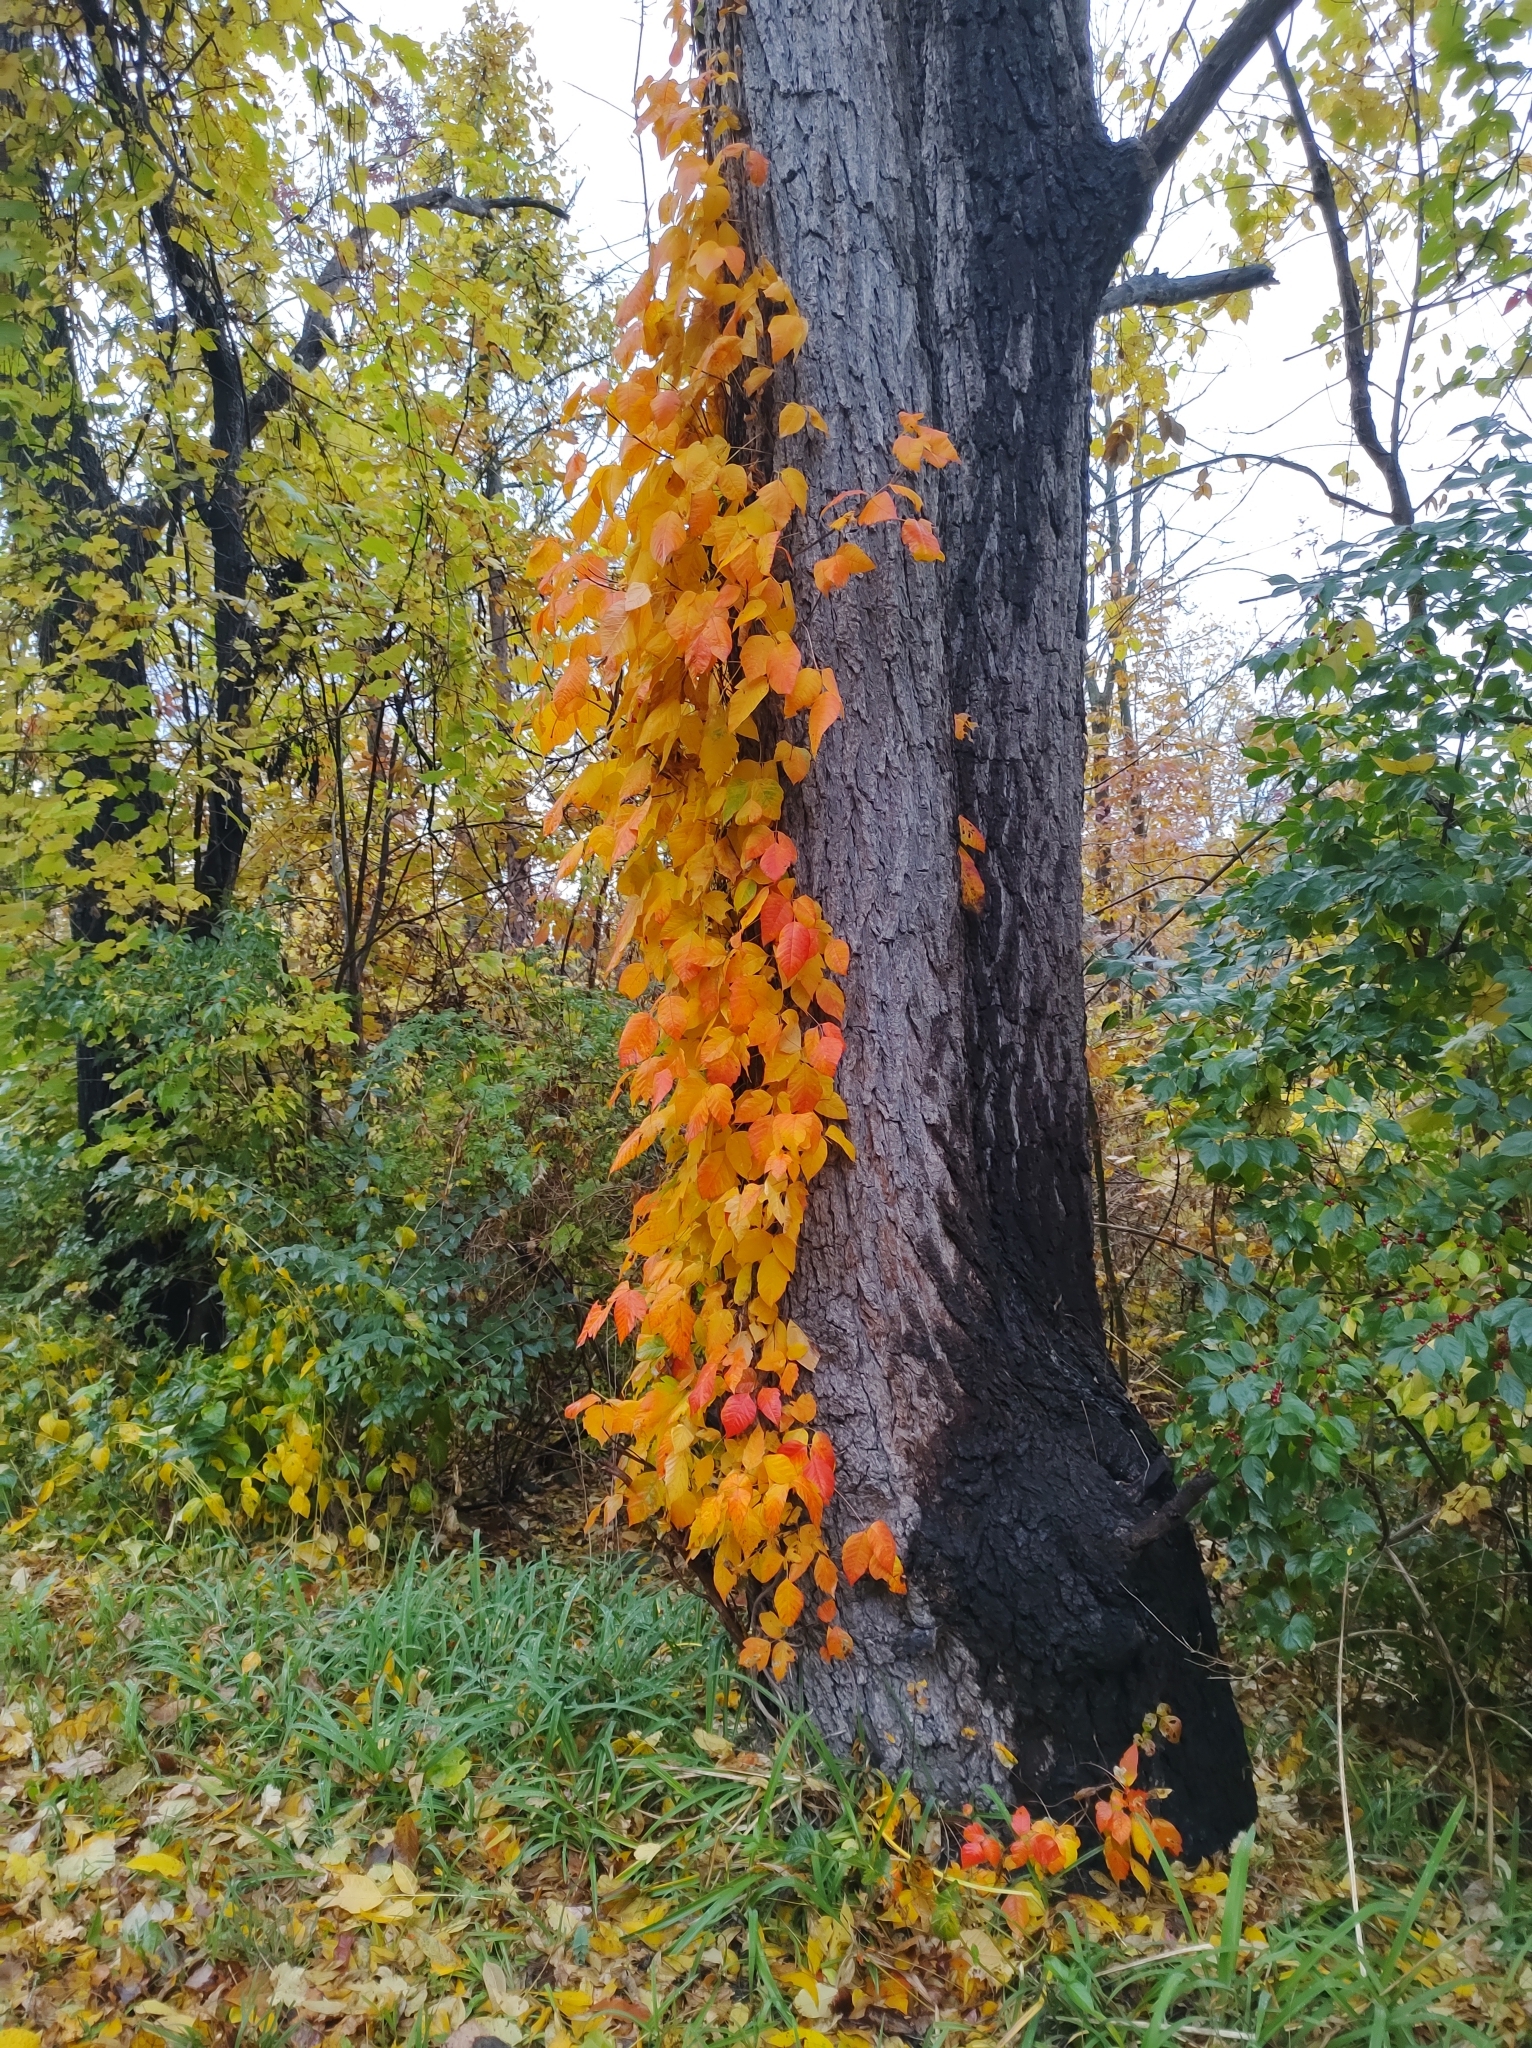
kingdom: Plantae
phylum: Tracheophyta
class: Magnoliopsida
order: Sapindales
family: Anacardiaceae
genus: Toxicodendron
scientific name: Toxicodendron radicans
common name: Poison ivy
